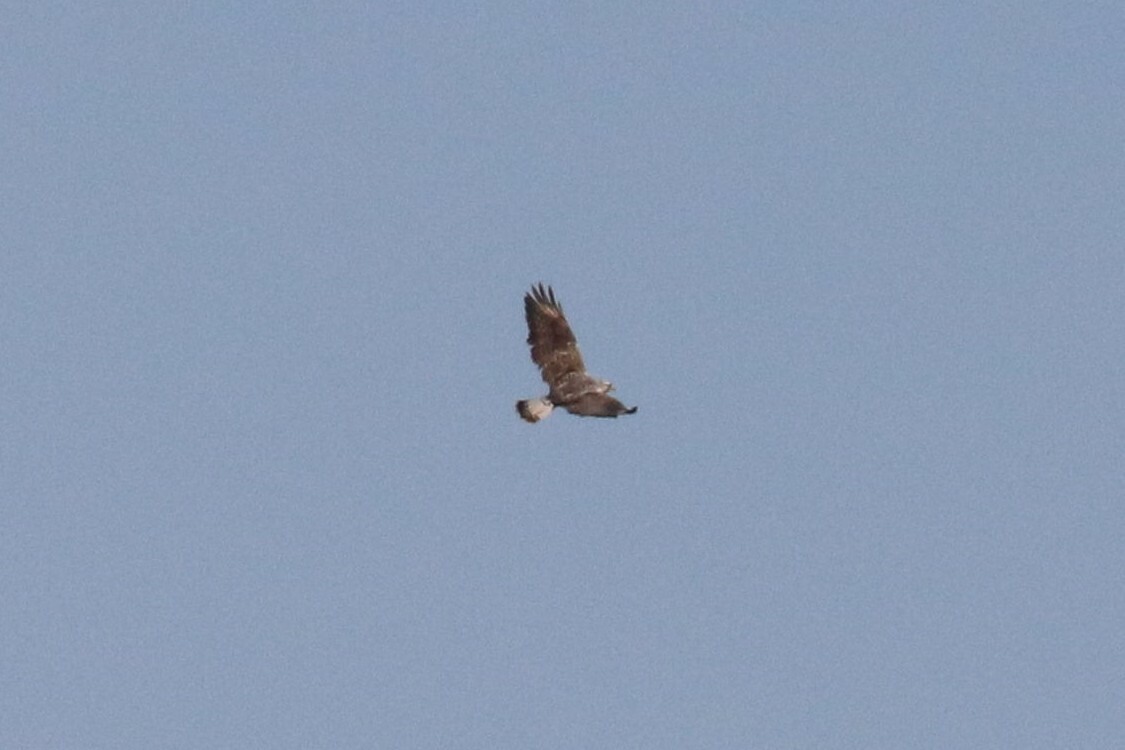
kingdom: Animalia
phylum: Chordata
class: Aves
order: Accipitriformes
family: Accipitridae
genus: Buteo
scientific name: Buteo lagopus
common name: Rough-legged buzzard
